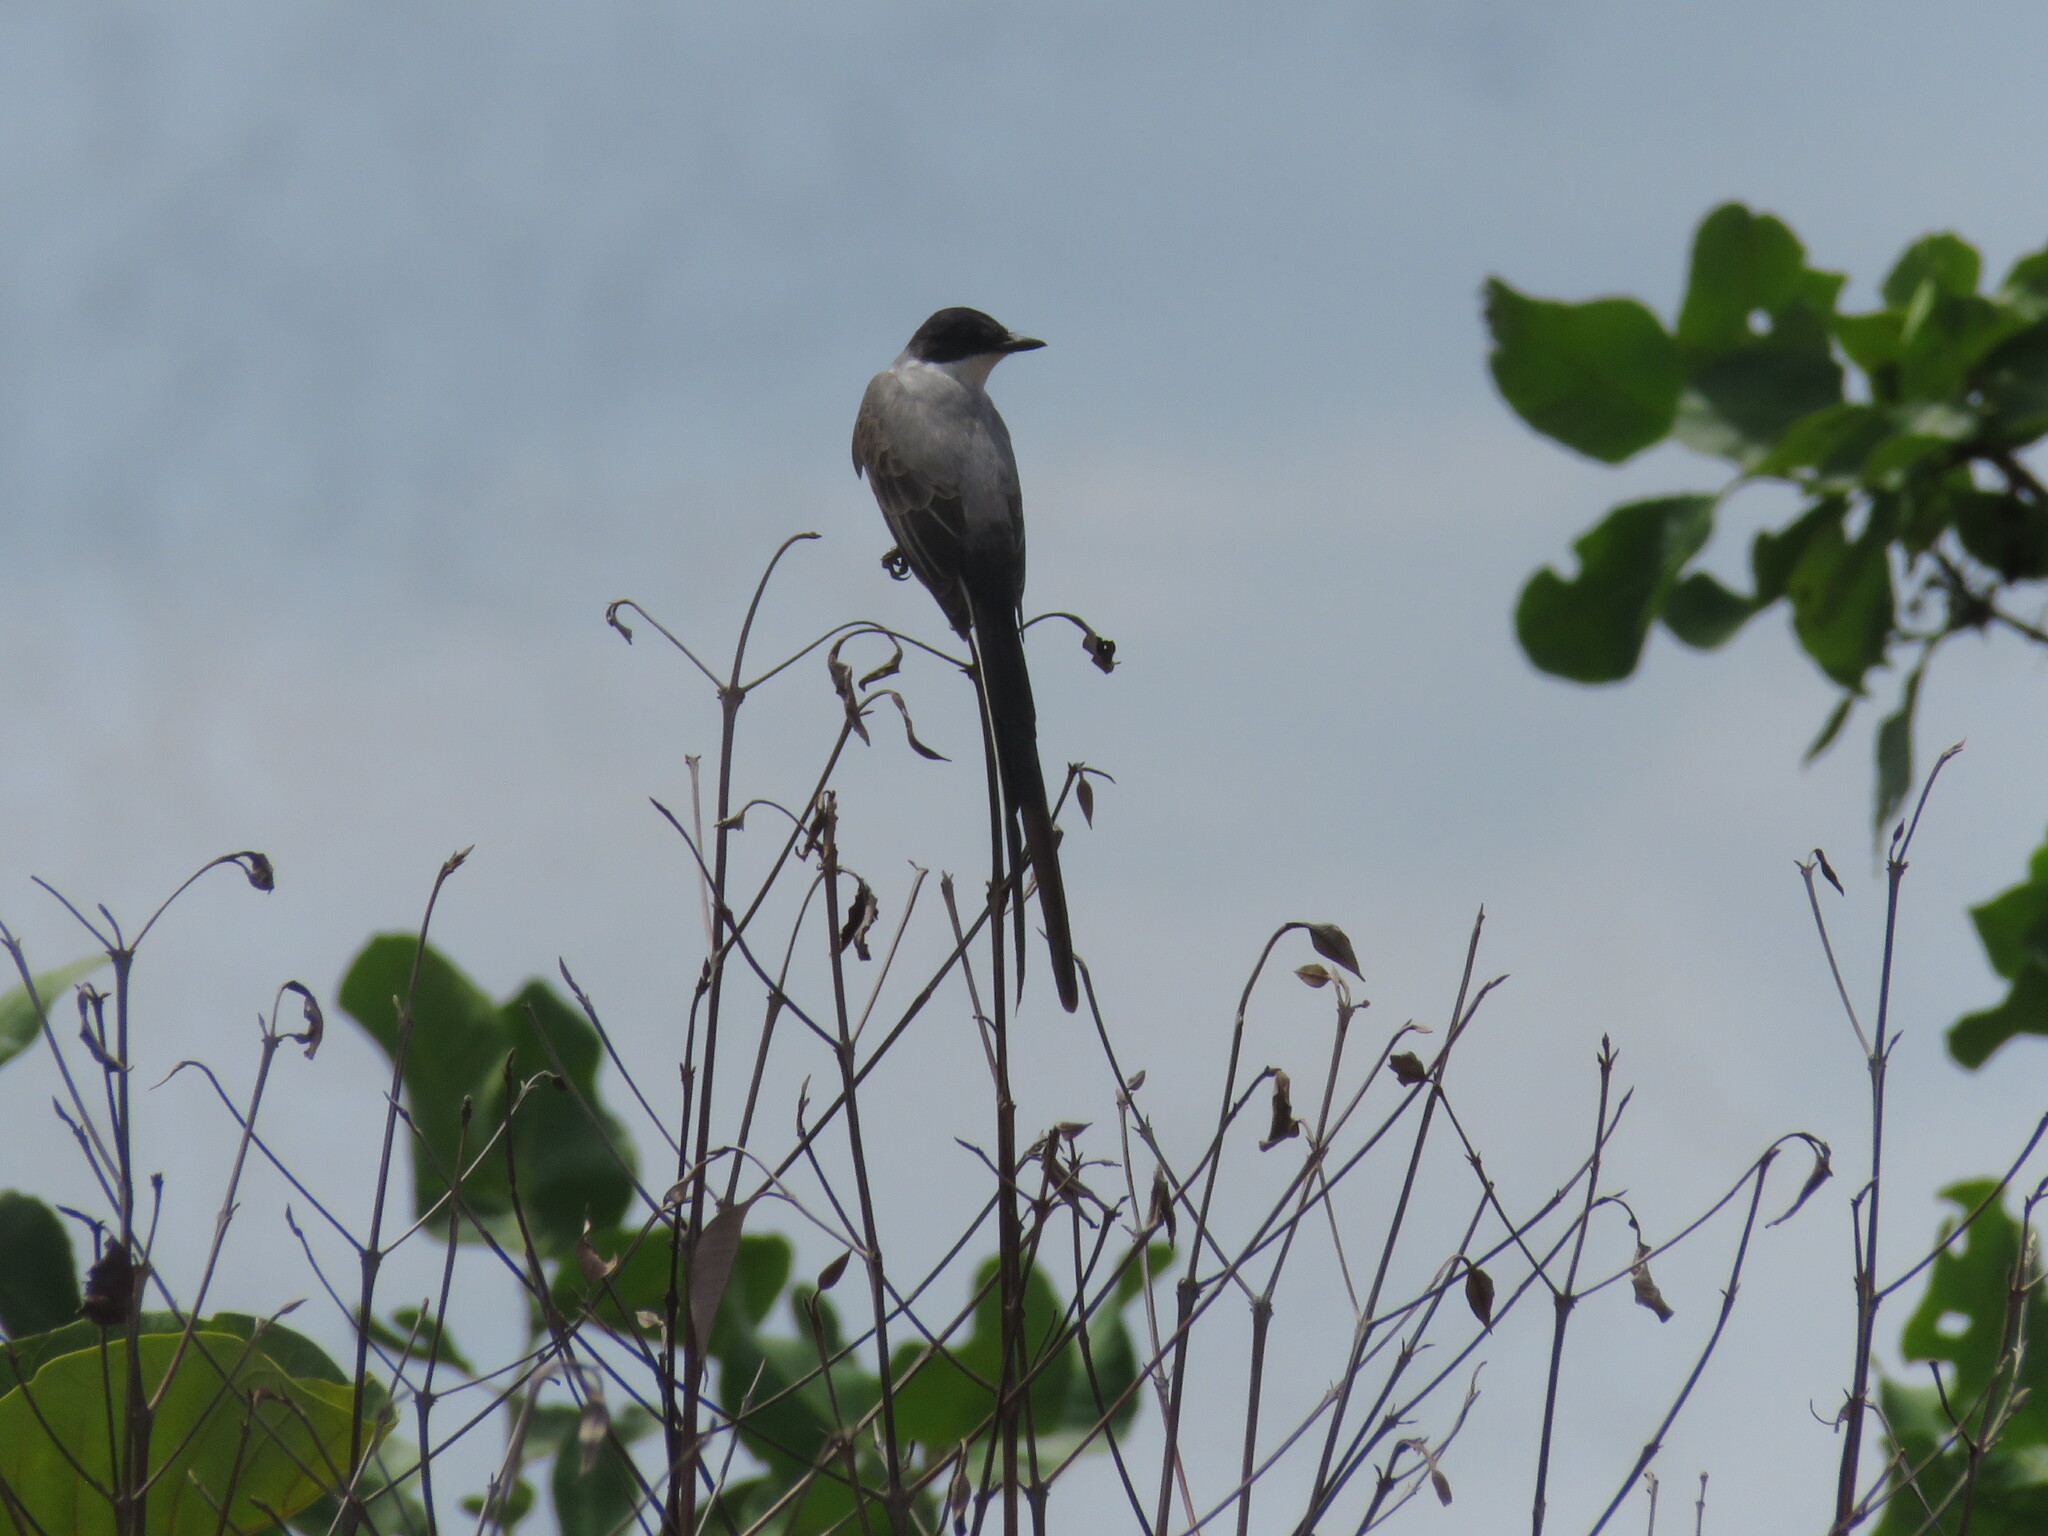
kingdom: Animalia
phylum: Chordata
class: Aves
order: Passeriformes
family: Tyrannidae
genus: Tyrannus
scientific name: Tyrannus savana
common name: Fork-tailed flycatcher
